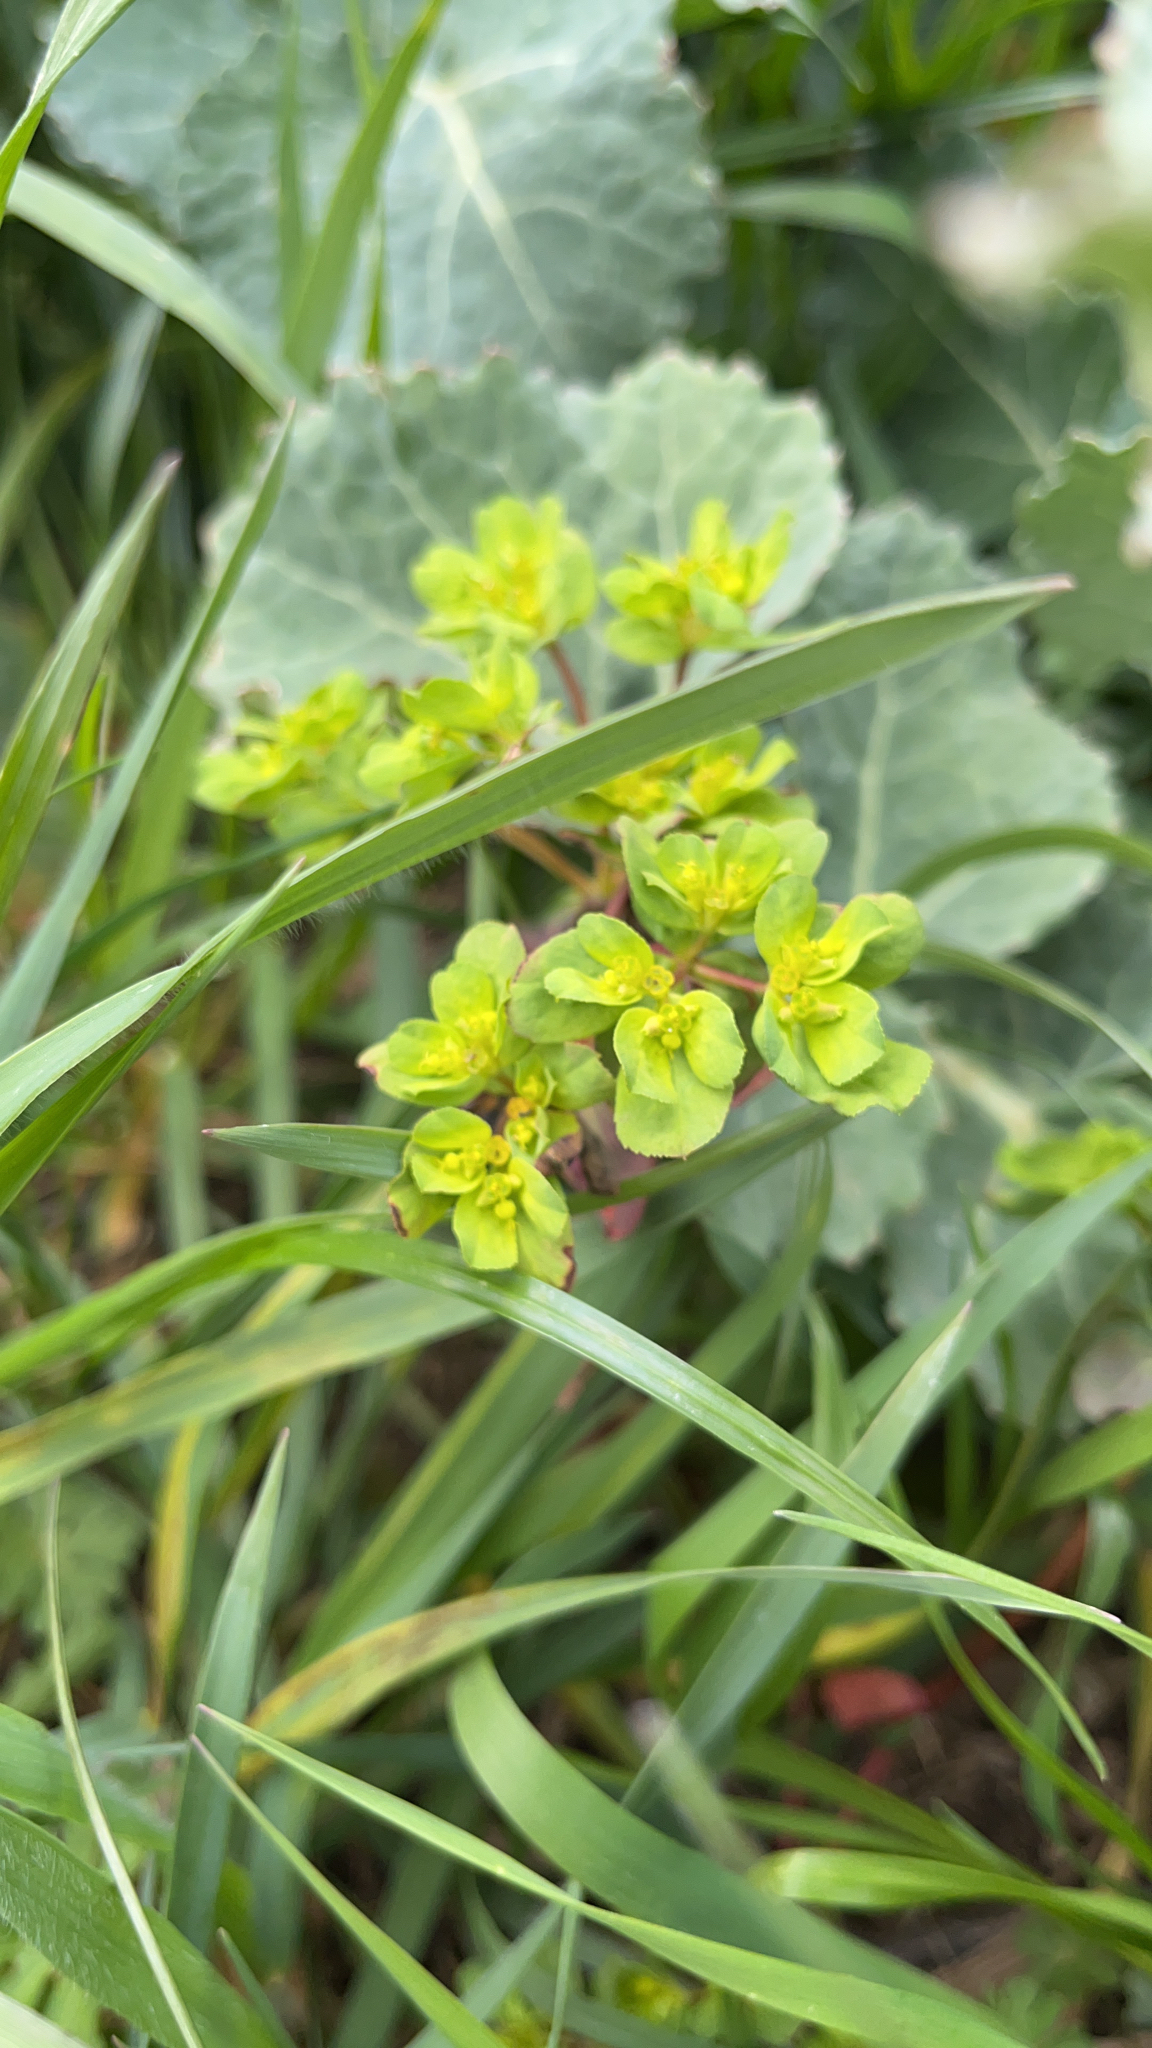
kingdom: Plantae
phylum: Tracheophyta
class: Magnoliopsida
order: Malpighiales
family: Euphorbiaceae
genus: Euphorbia
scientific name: Euphorbia helioscopia
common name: Sun spurge
